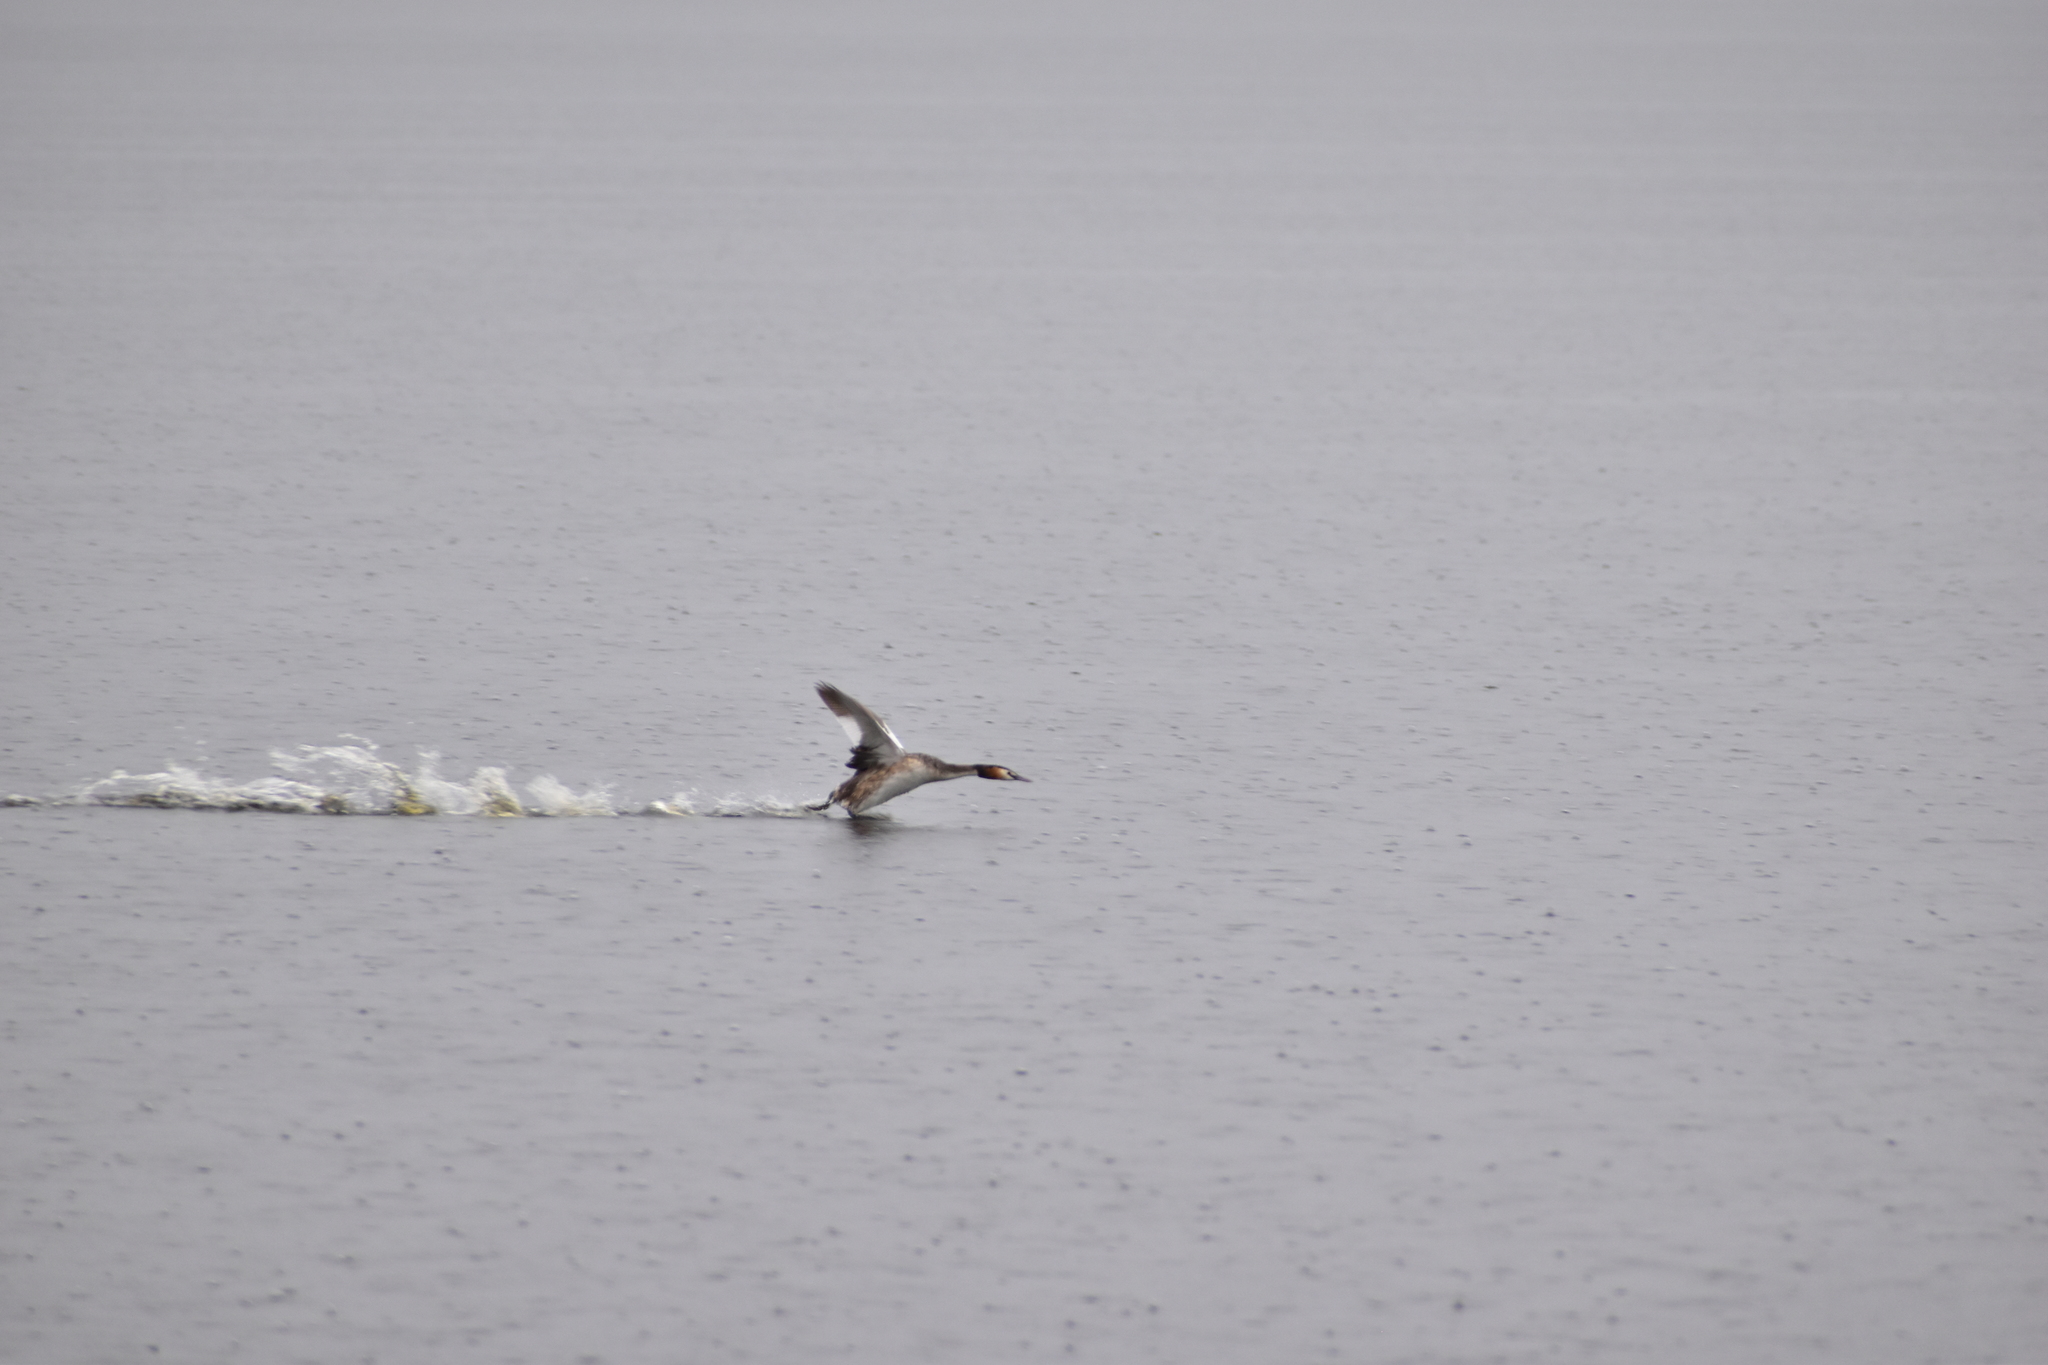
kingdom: Animalia
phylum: Chordata
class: Aves
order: Podicipediformes
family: Podicipedidae
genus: Podiceps
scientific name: Podiceps cristatus
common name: Great crested grebe
